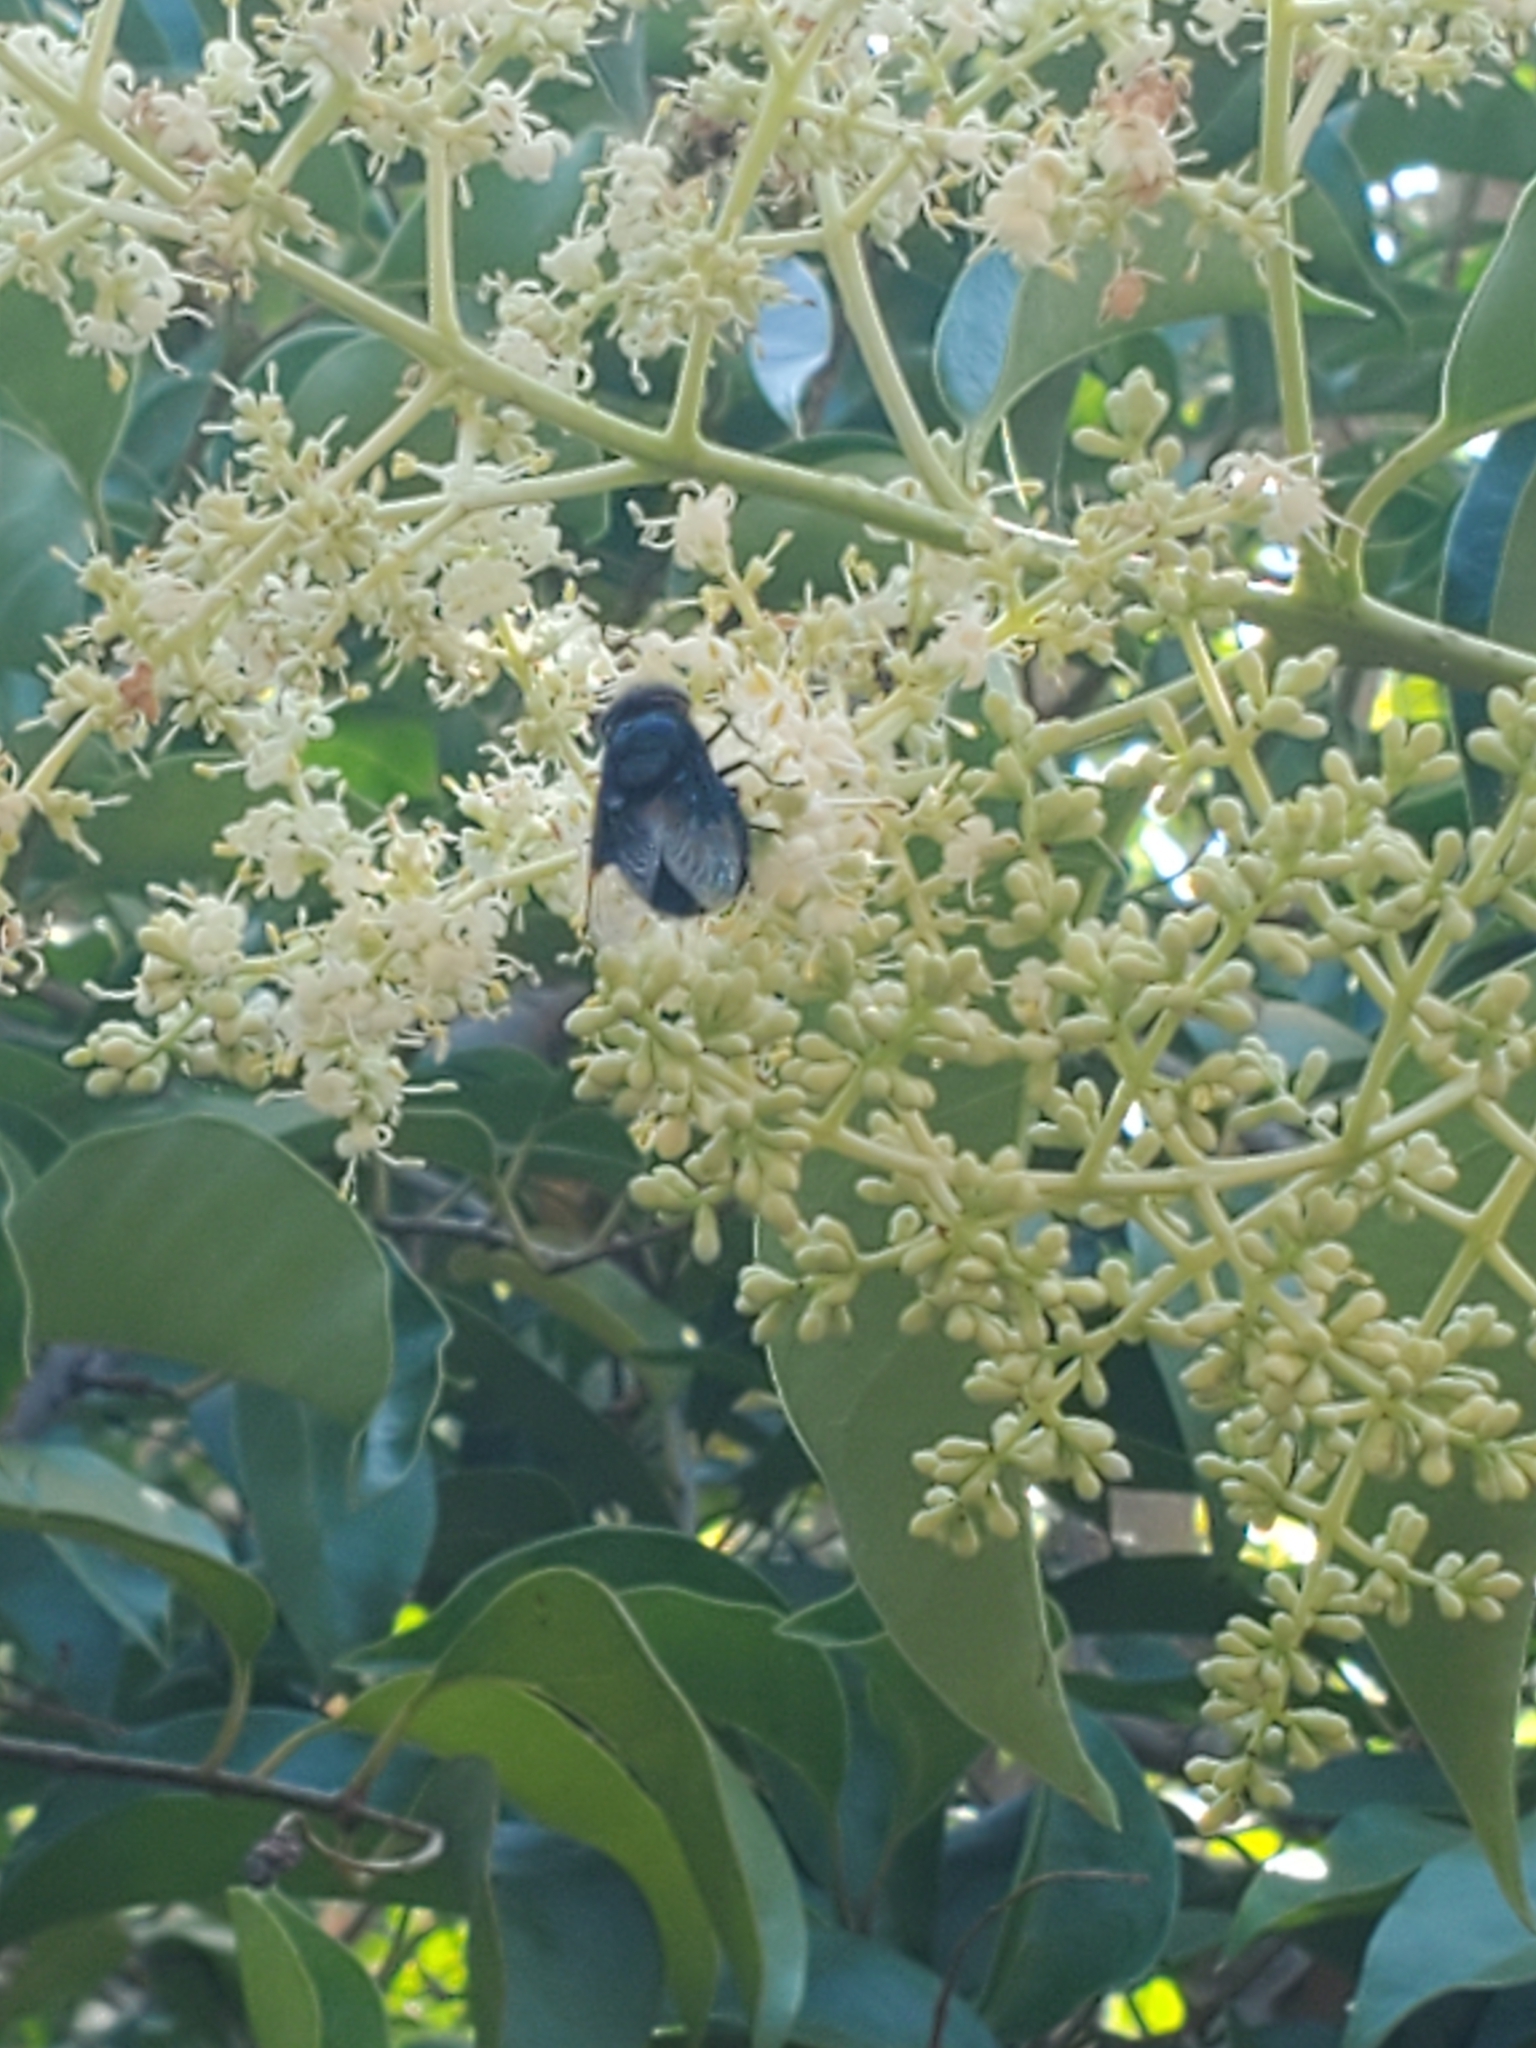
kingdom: Animalia
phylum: Arthropoda
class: Insecta
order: Diptera
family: Syrphidae
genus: Copestylum
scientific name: Copestylum
